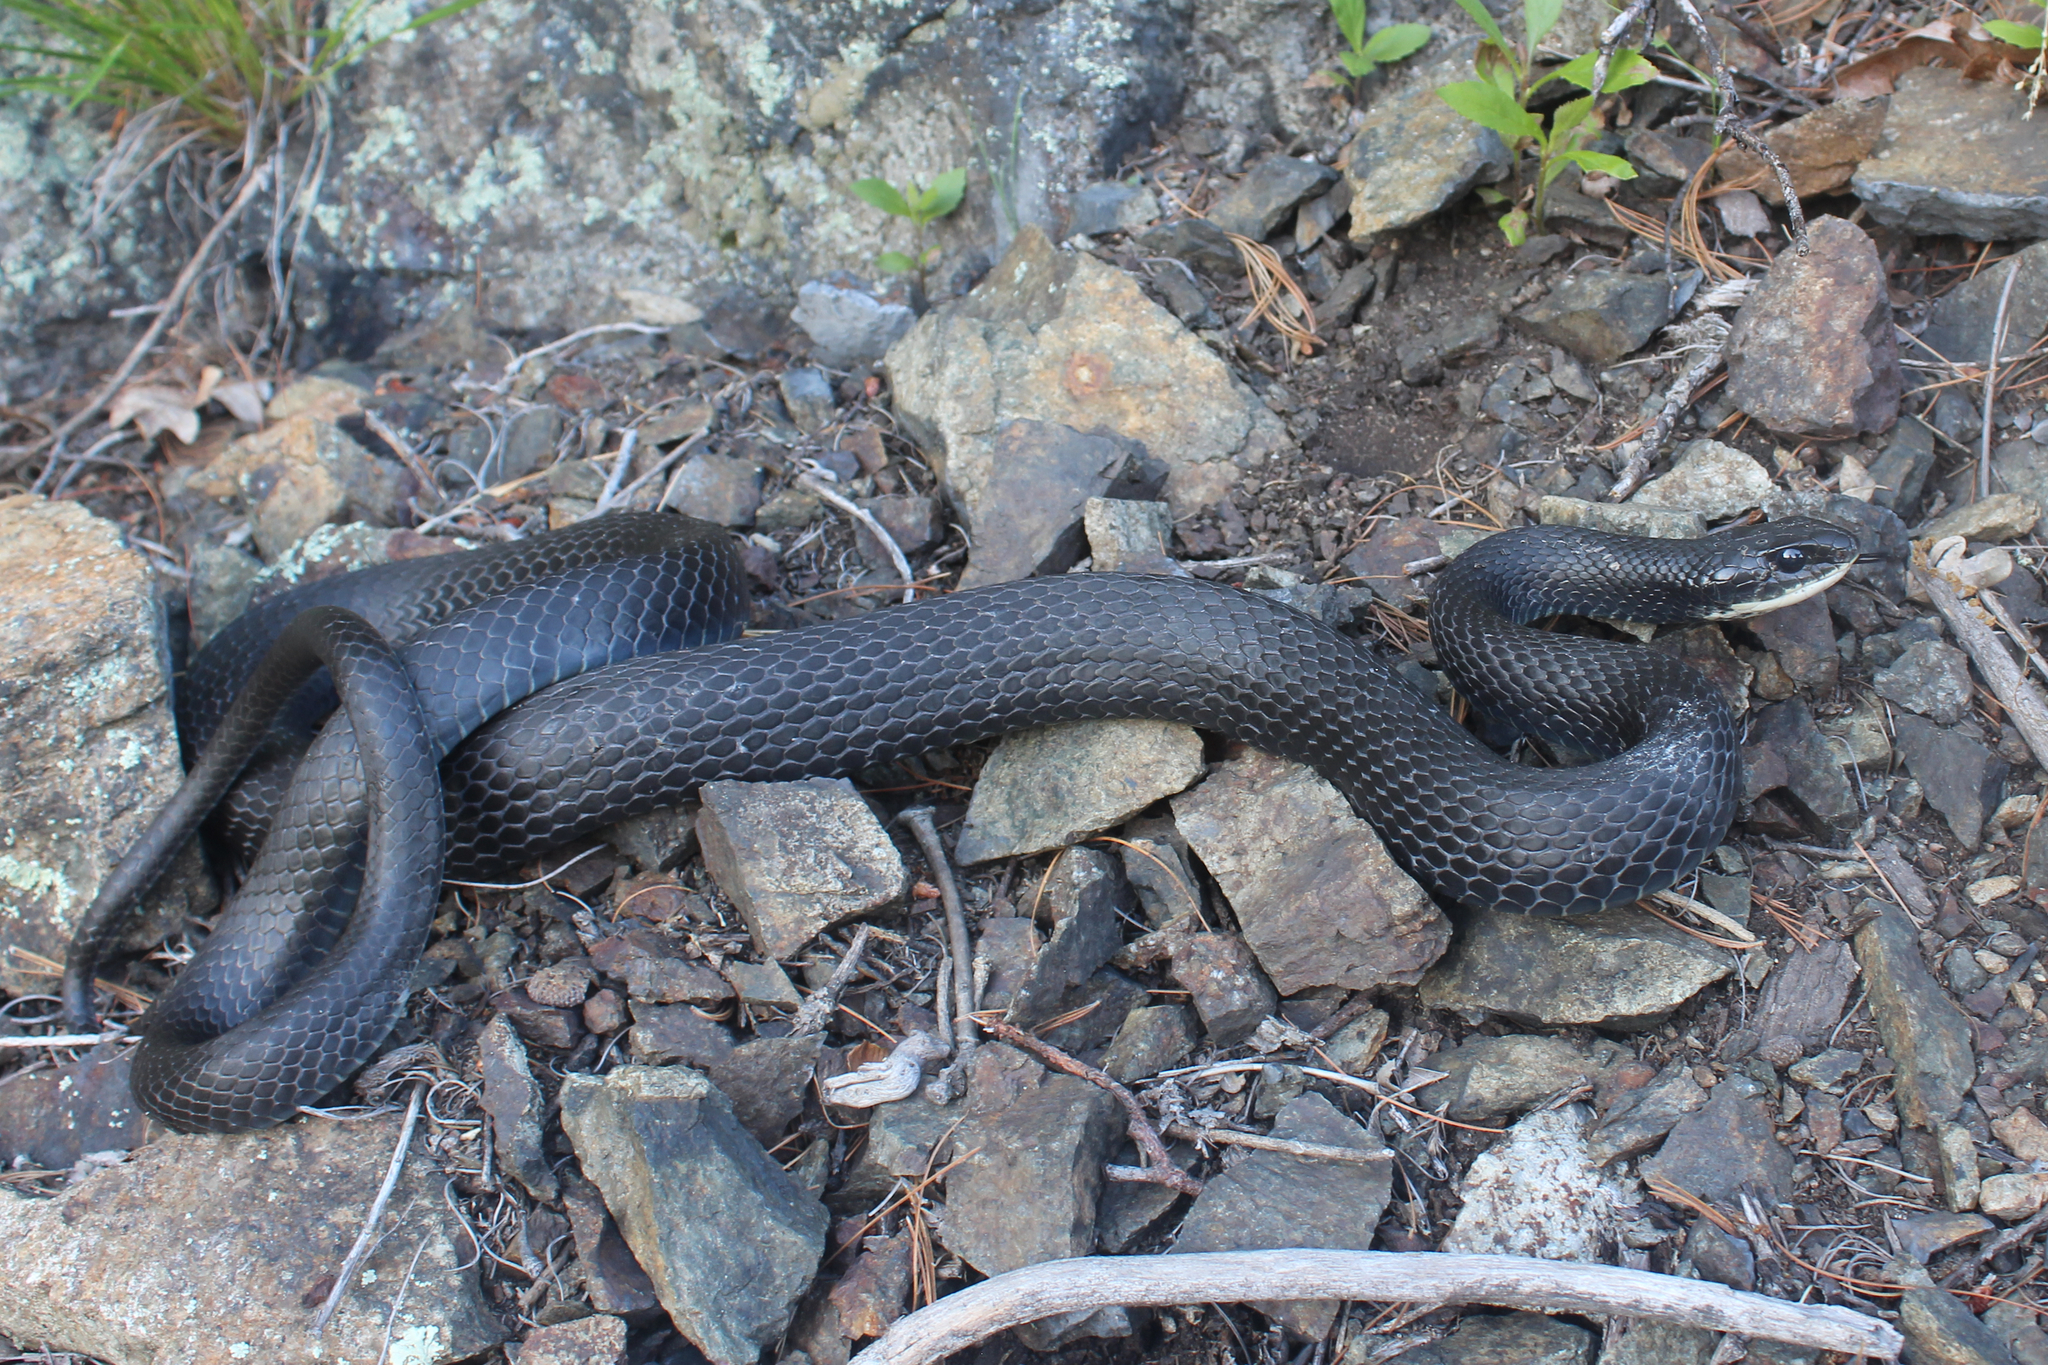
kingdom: Animalia
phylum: Chordata
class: Squamata
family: Colubridae
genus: Coluber
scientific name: Coluber constrictor
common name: Eastern racer
